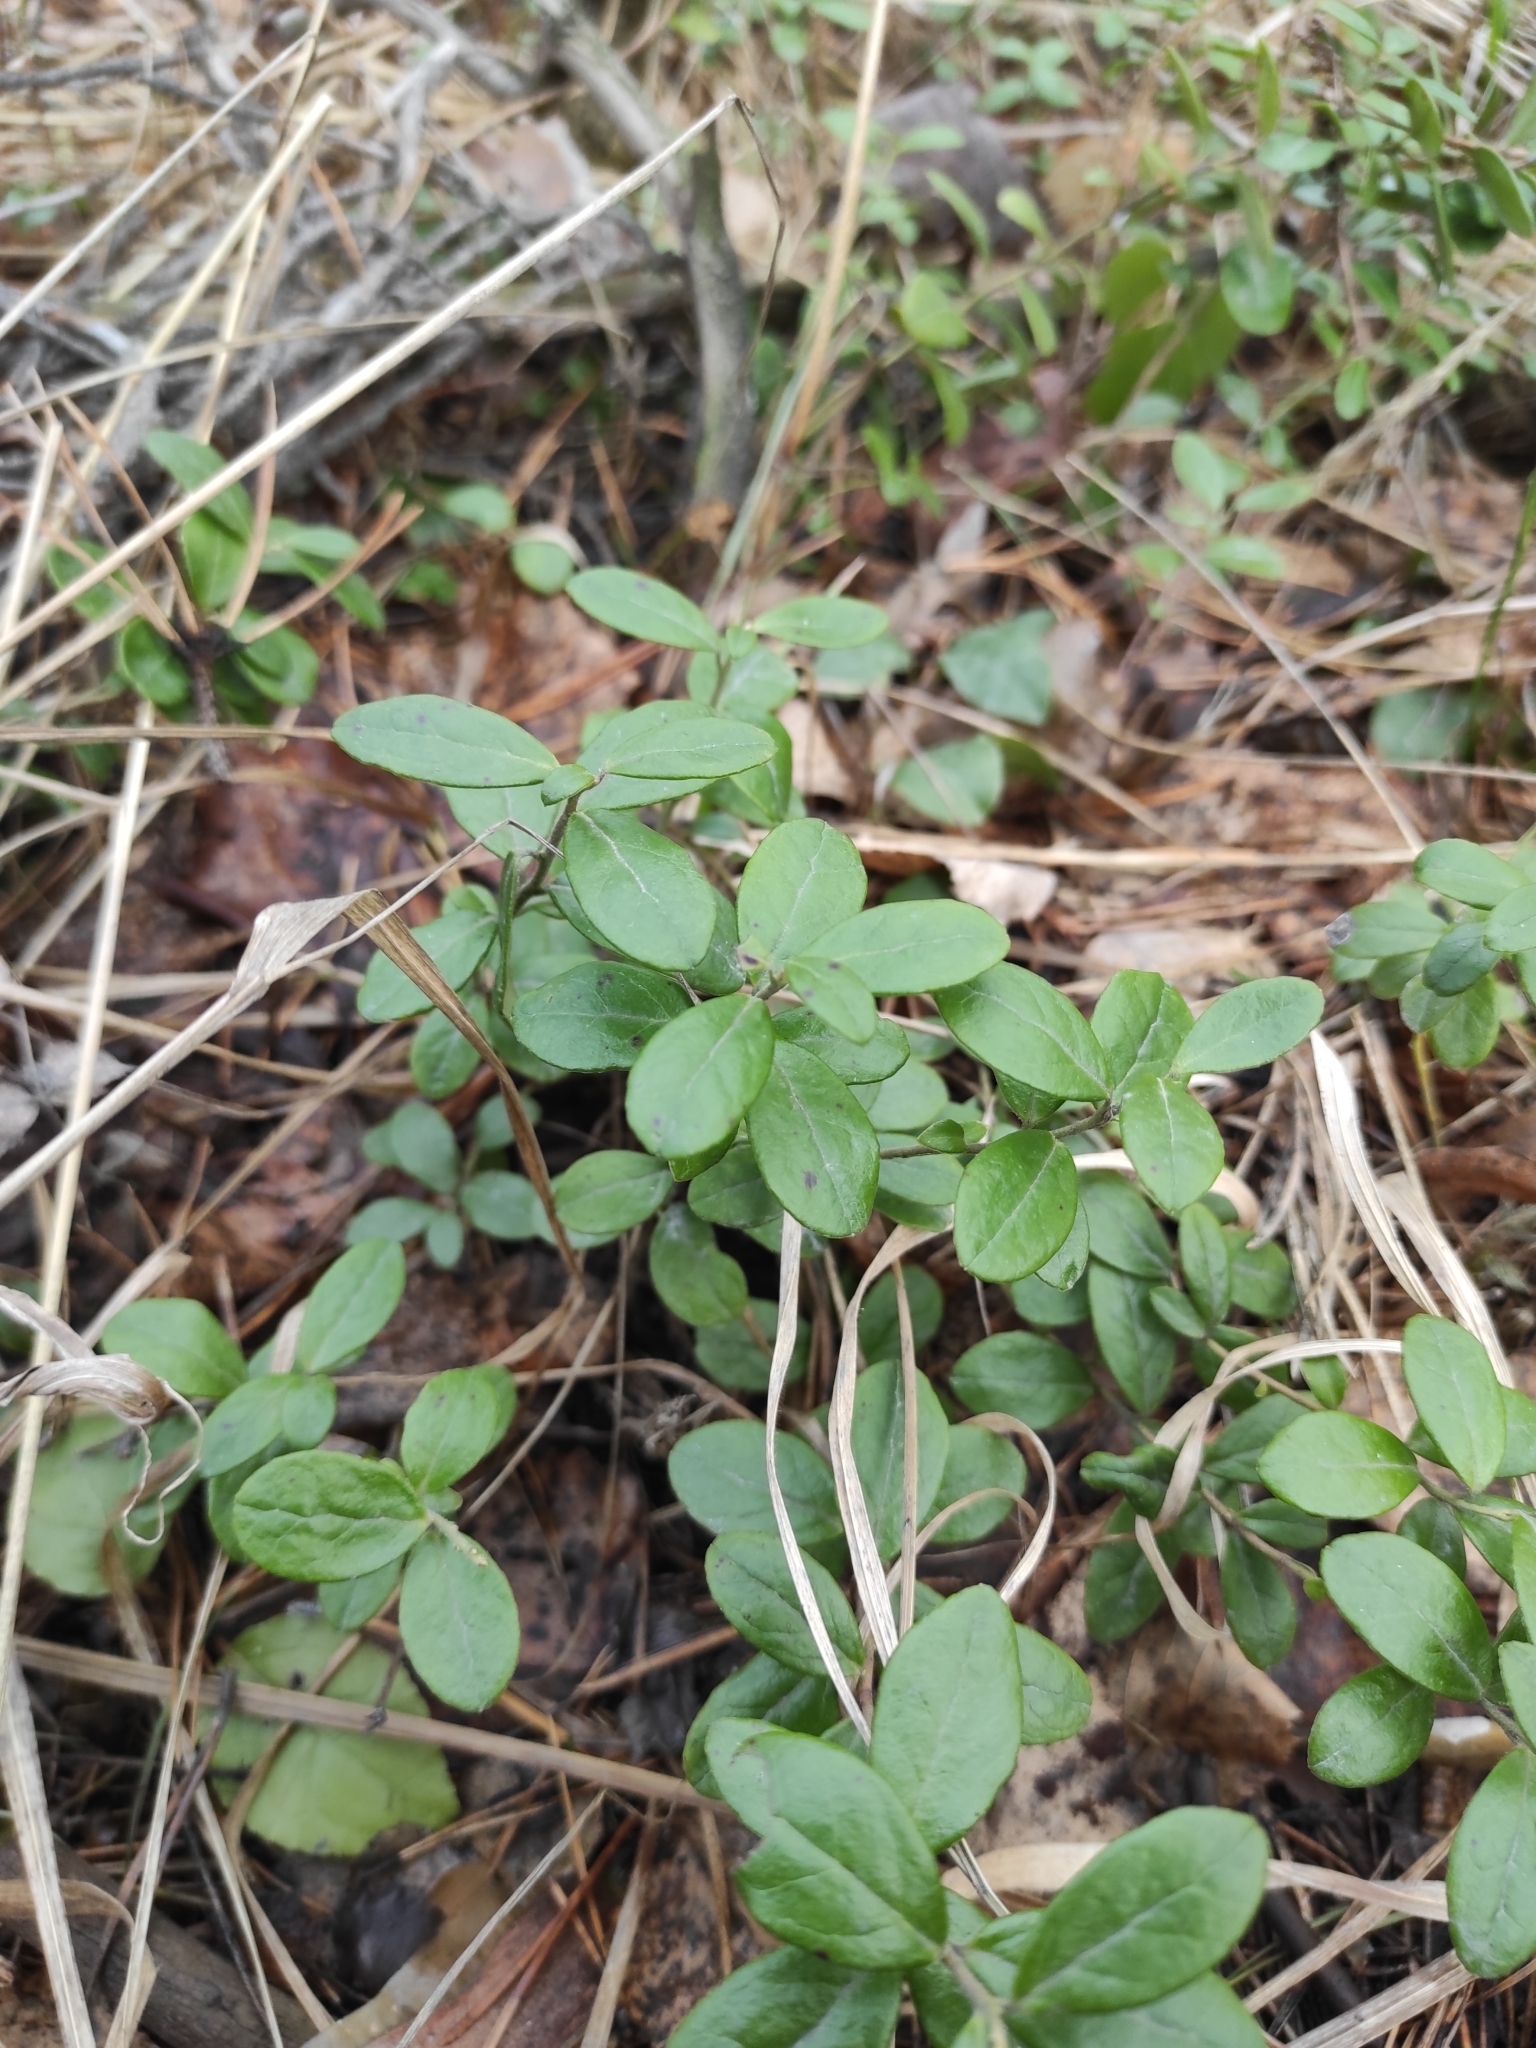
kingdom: Plantae
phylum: Tracheophyta
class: Magnoliopsida
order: Ericales
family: Ericaceae
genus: Vaccinium
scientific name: Vaccinium vitis-idaea
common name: Cowberry
